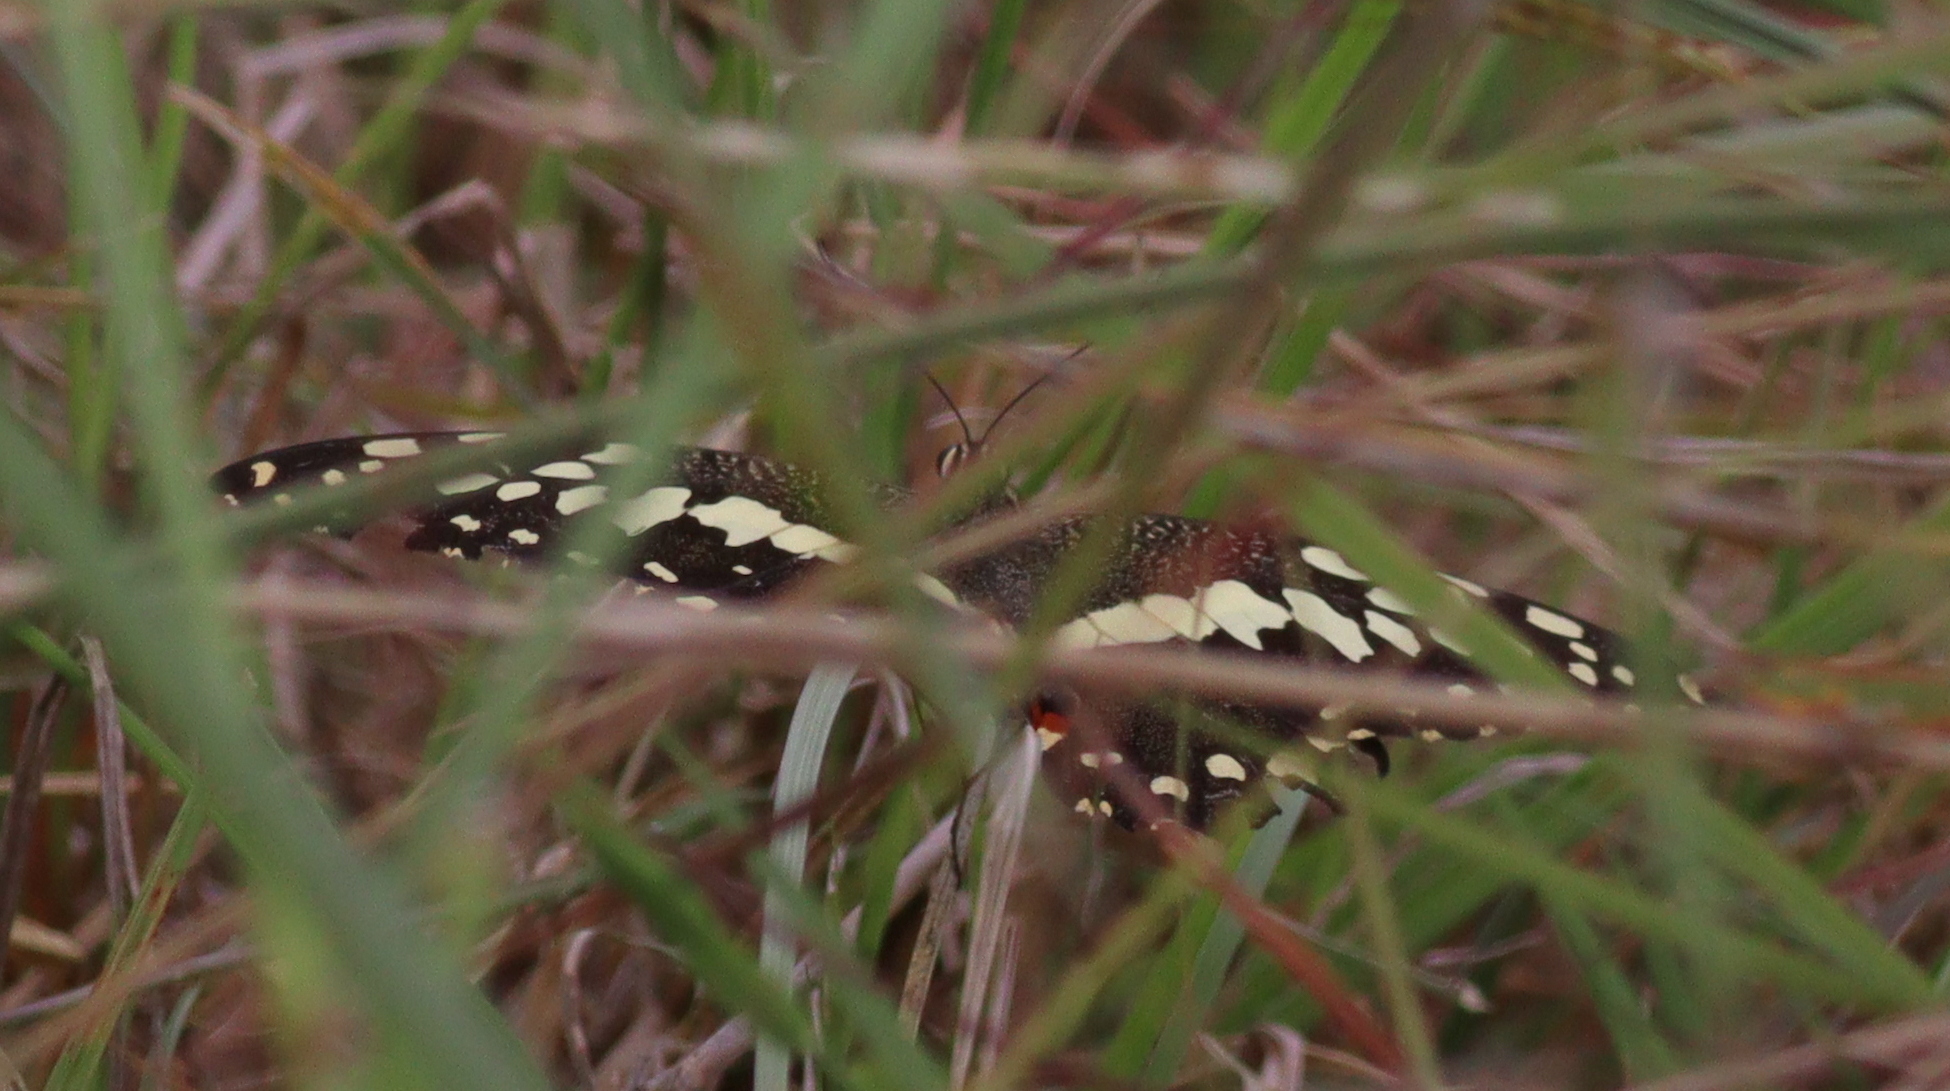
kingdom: Animalia
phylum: Arthropoda
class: Insecta
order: Lepidoptera
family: Papilionidae
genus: Papilio
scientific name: Papilio demodocus
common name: Christmas butterfly
